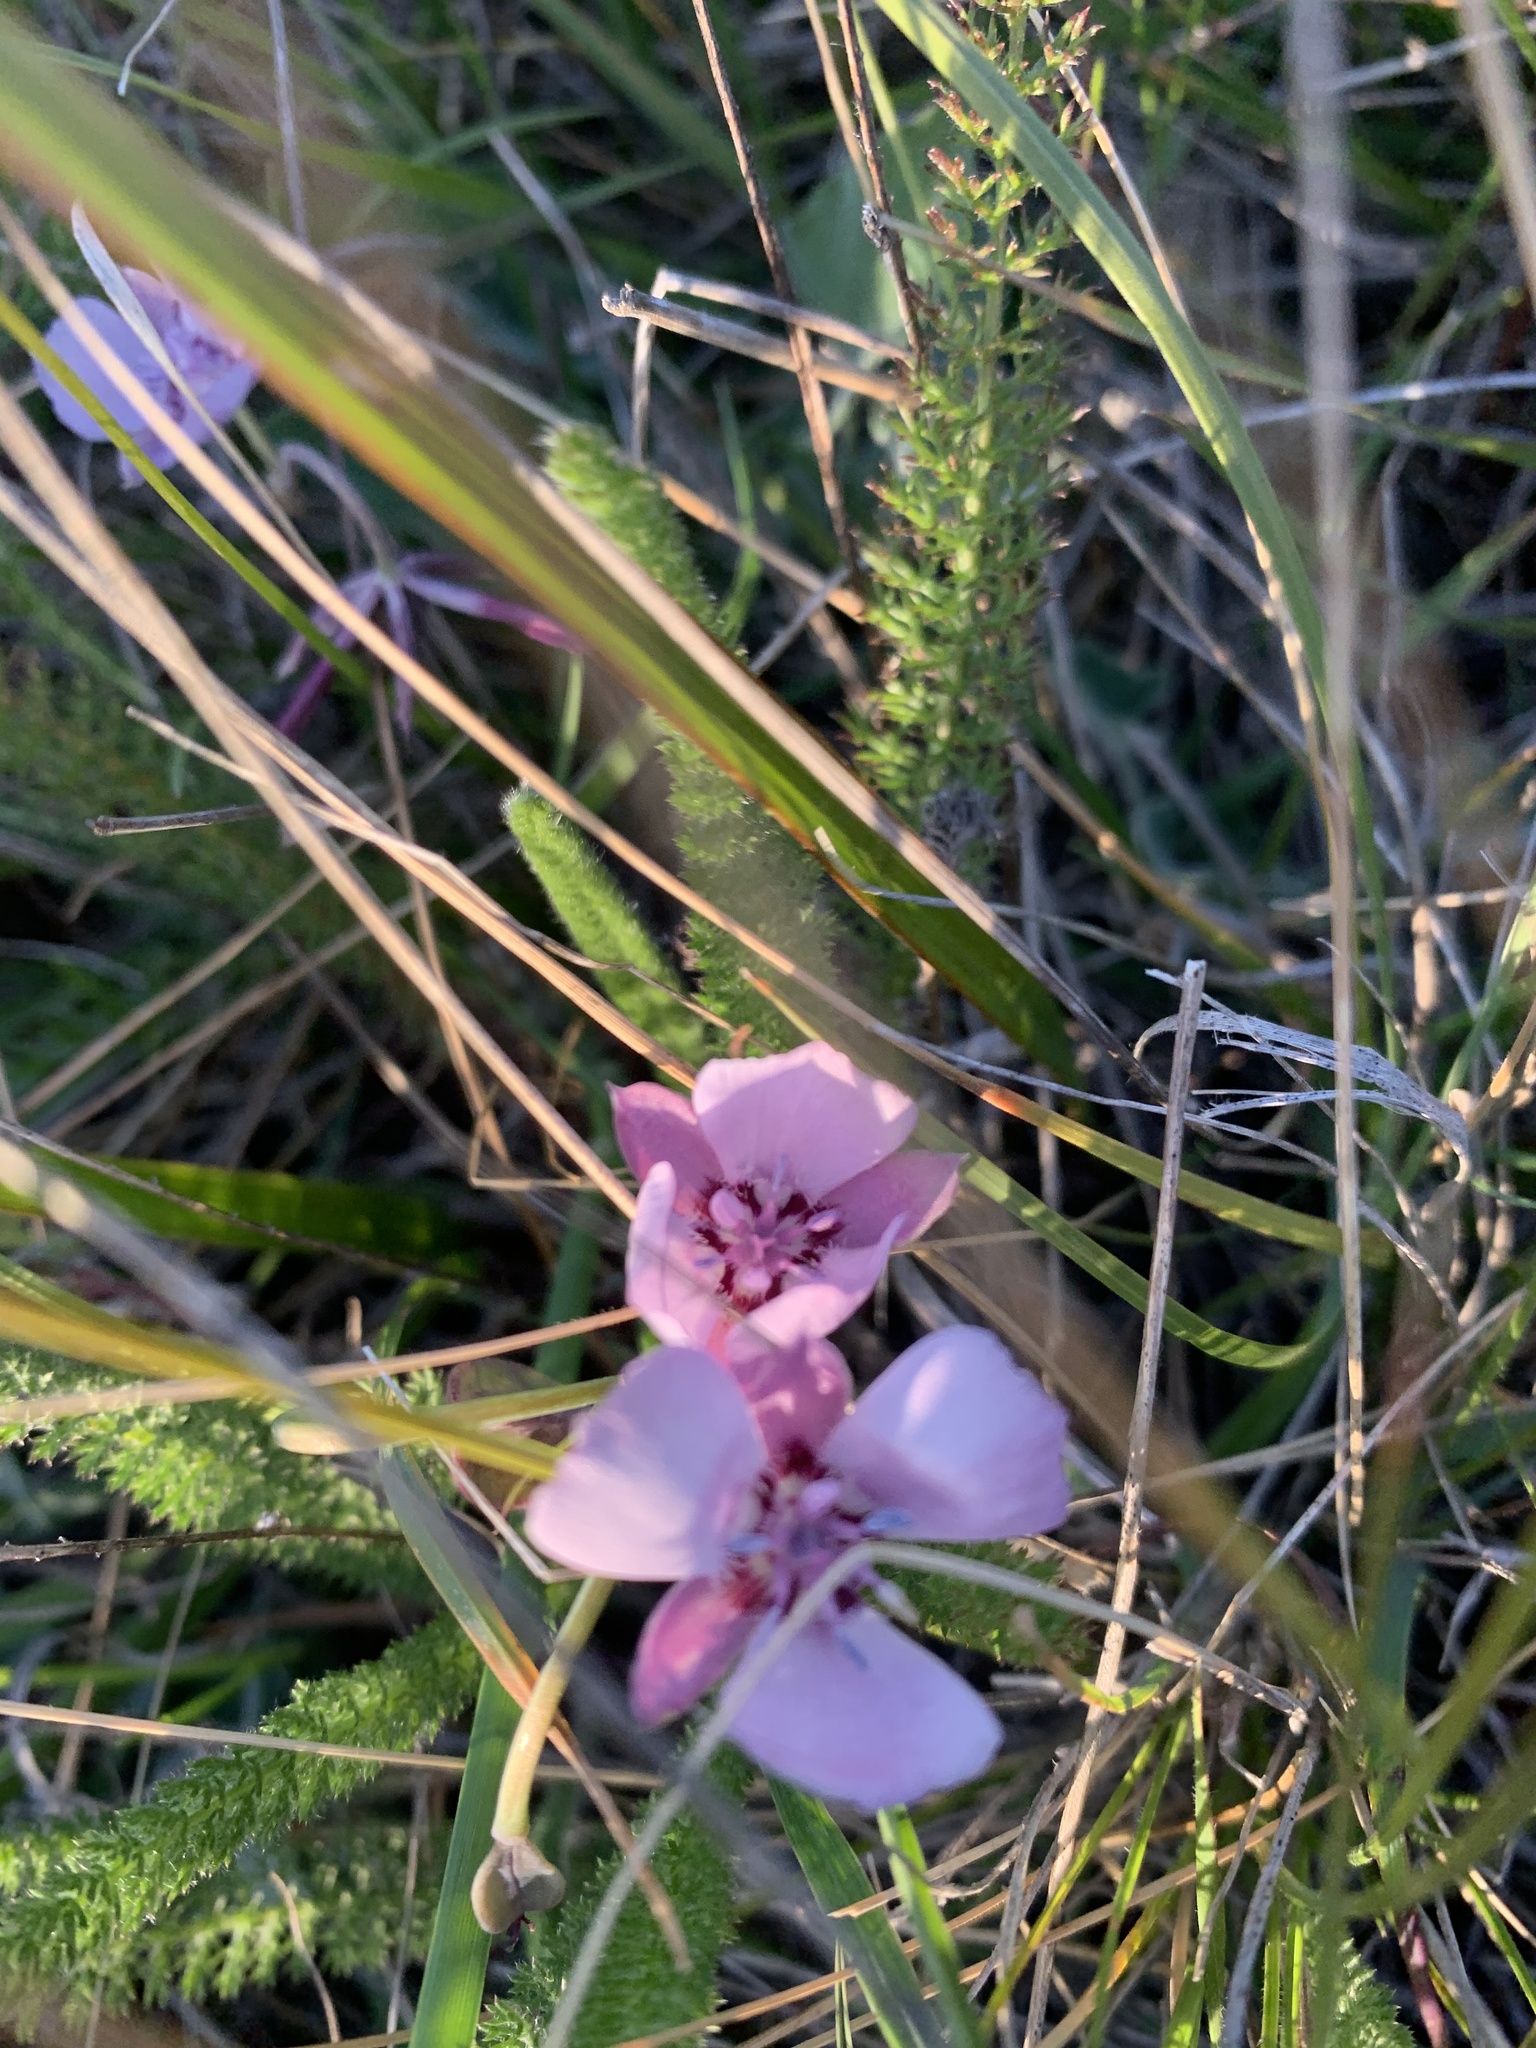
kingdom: Plantae
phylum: Tracheophyta
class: Liliopsida
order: Liliales
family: Liliaceae
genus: Calochortus
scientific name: Calochortus umbellatus
